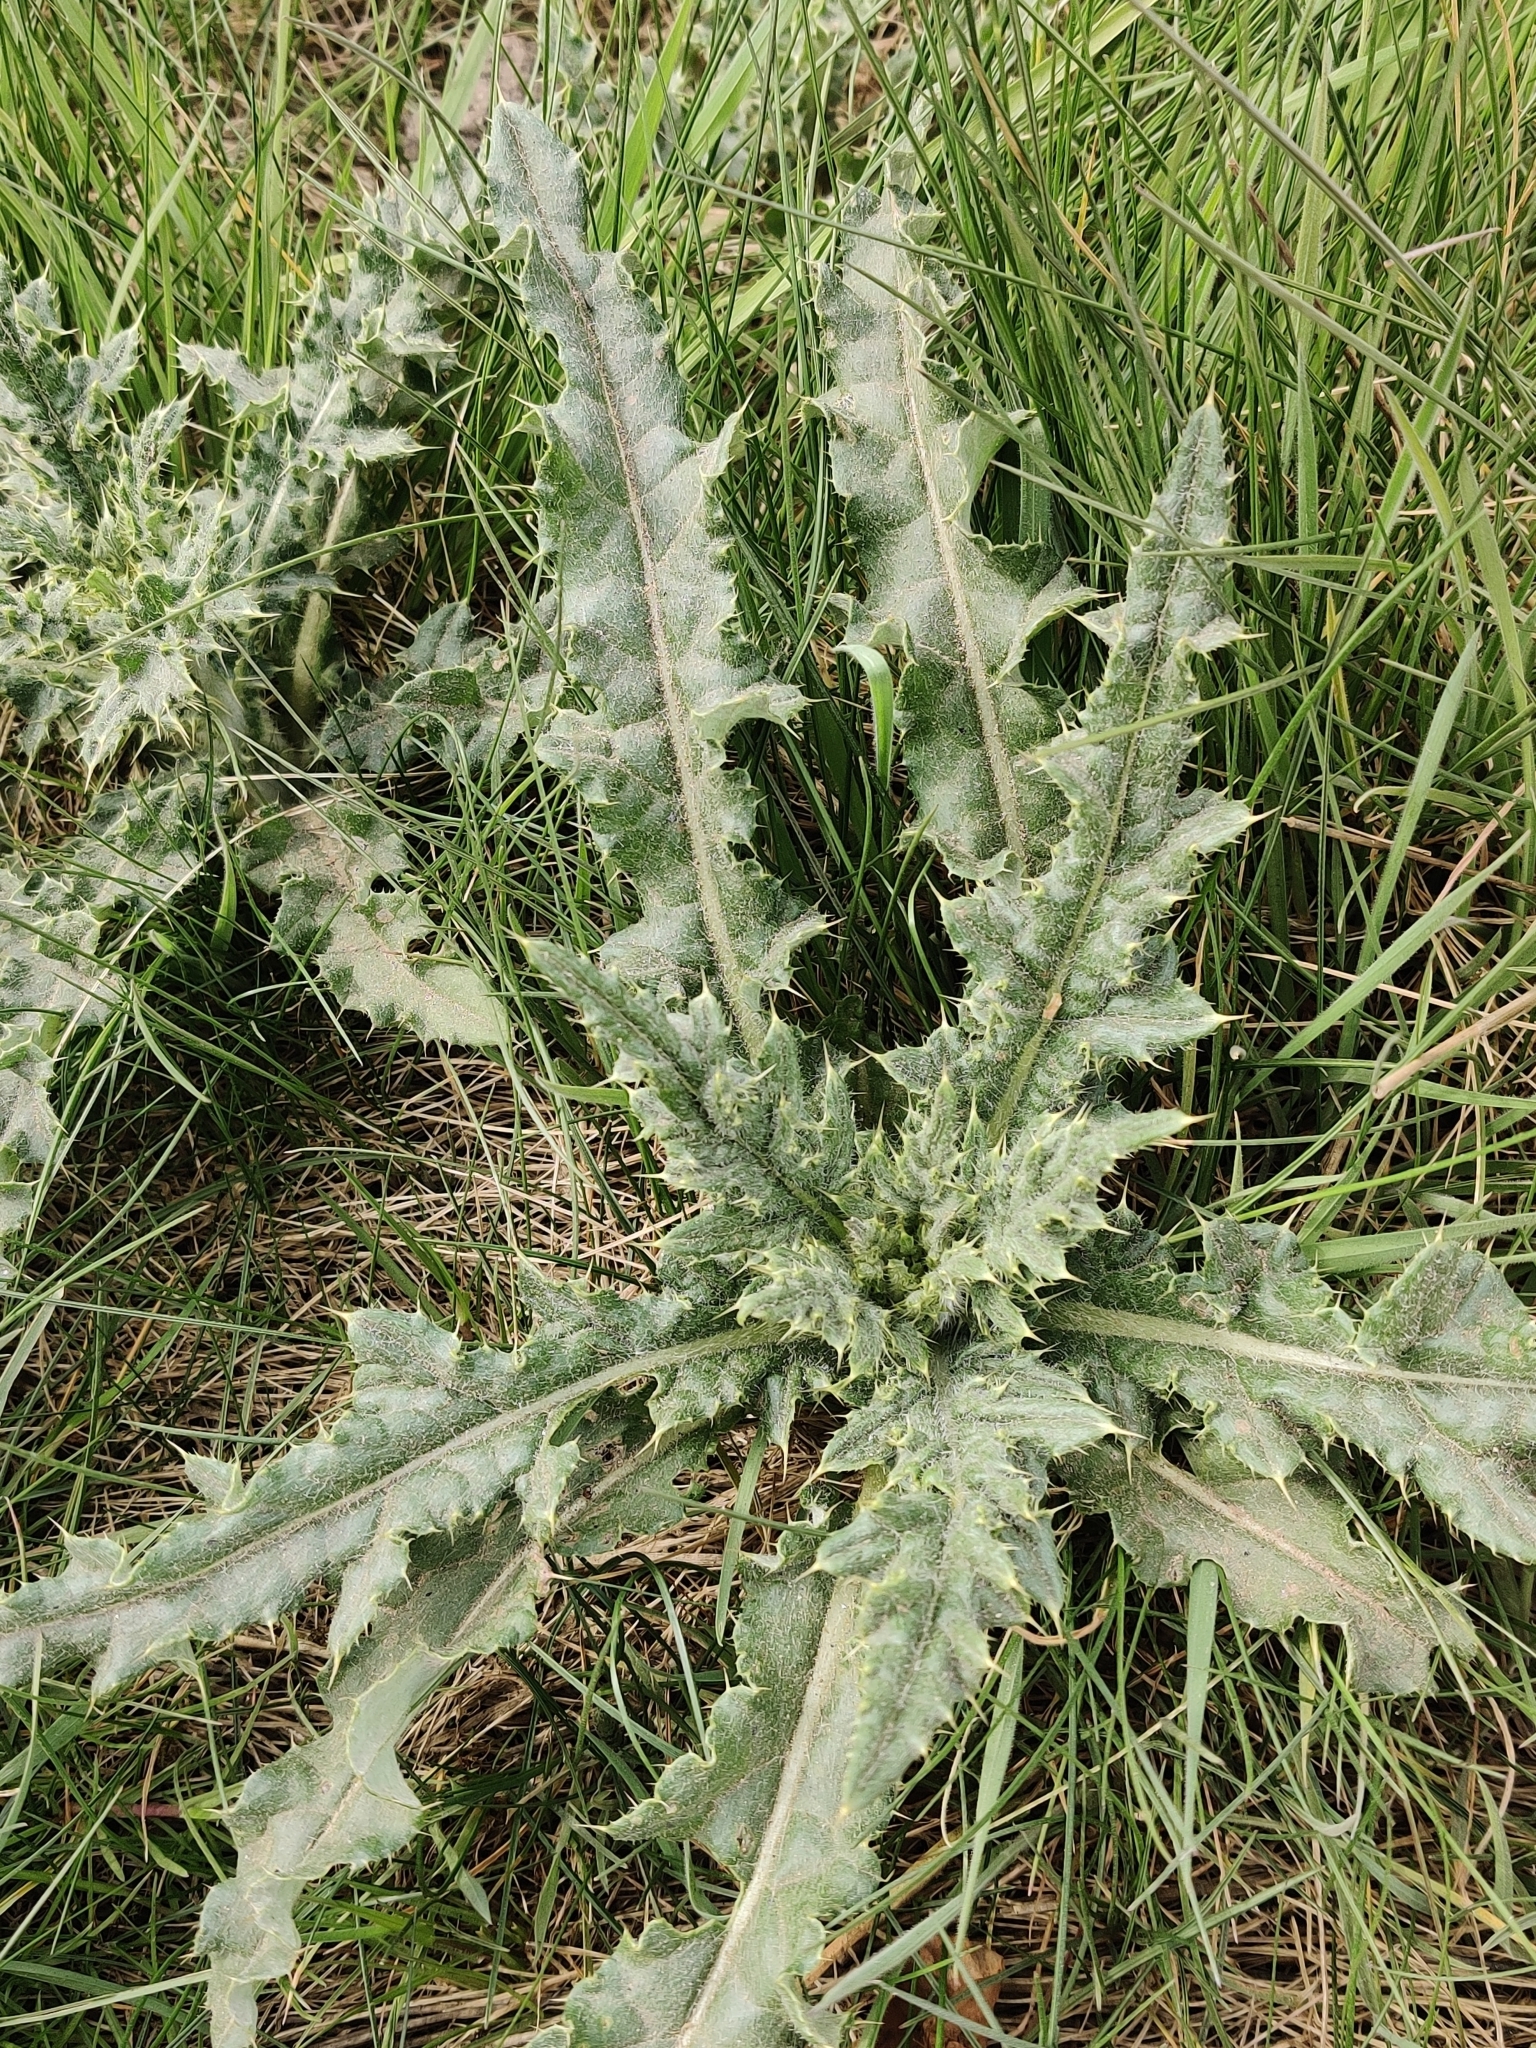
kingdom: Plantae
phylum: Tracheophyta
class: Magnoliopsida
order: Asterales
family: Asteraceae
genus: Cirsium
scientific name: Cirsium arvense
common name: Creeping thistle
